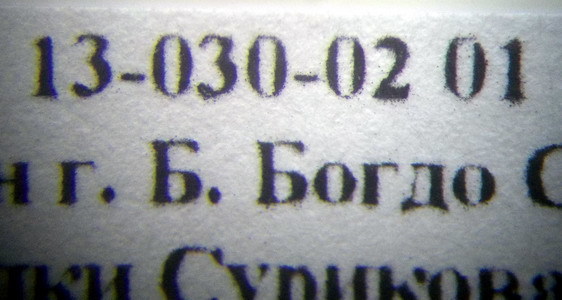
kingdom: Animalia
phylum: Arthropoda
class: Insecta
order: Hymenoptera
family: Formicidae
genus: Messor
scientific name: Messor structor
